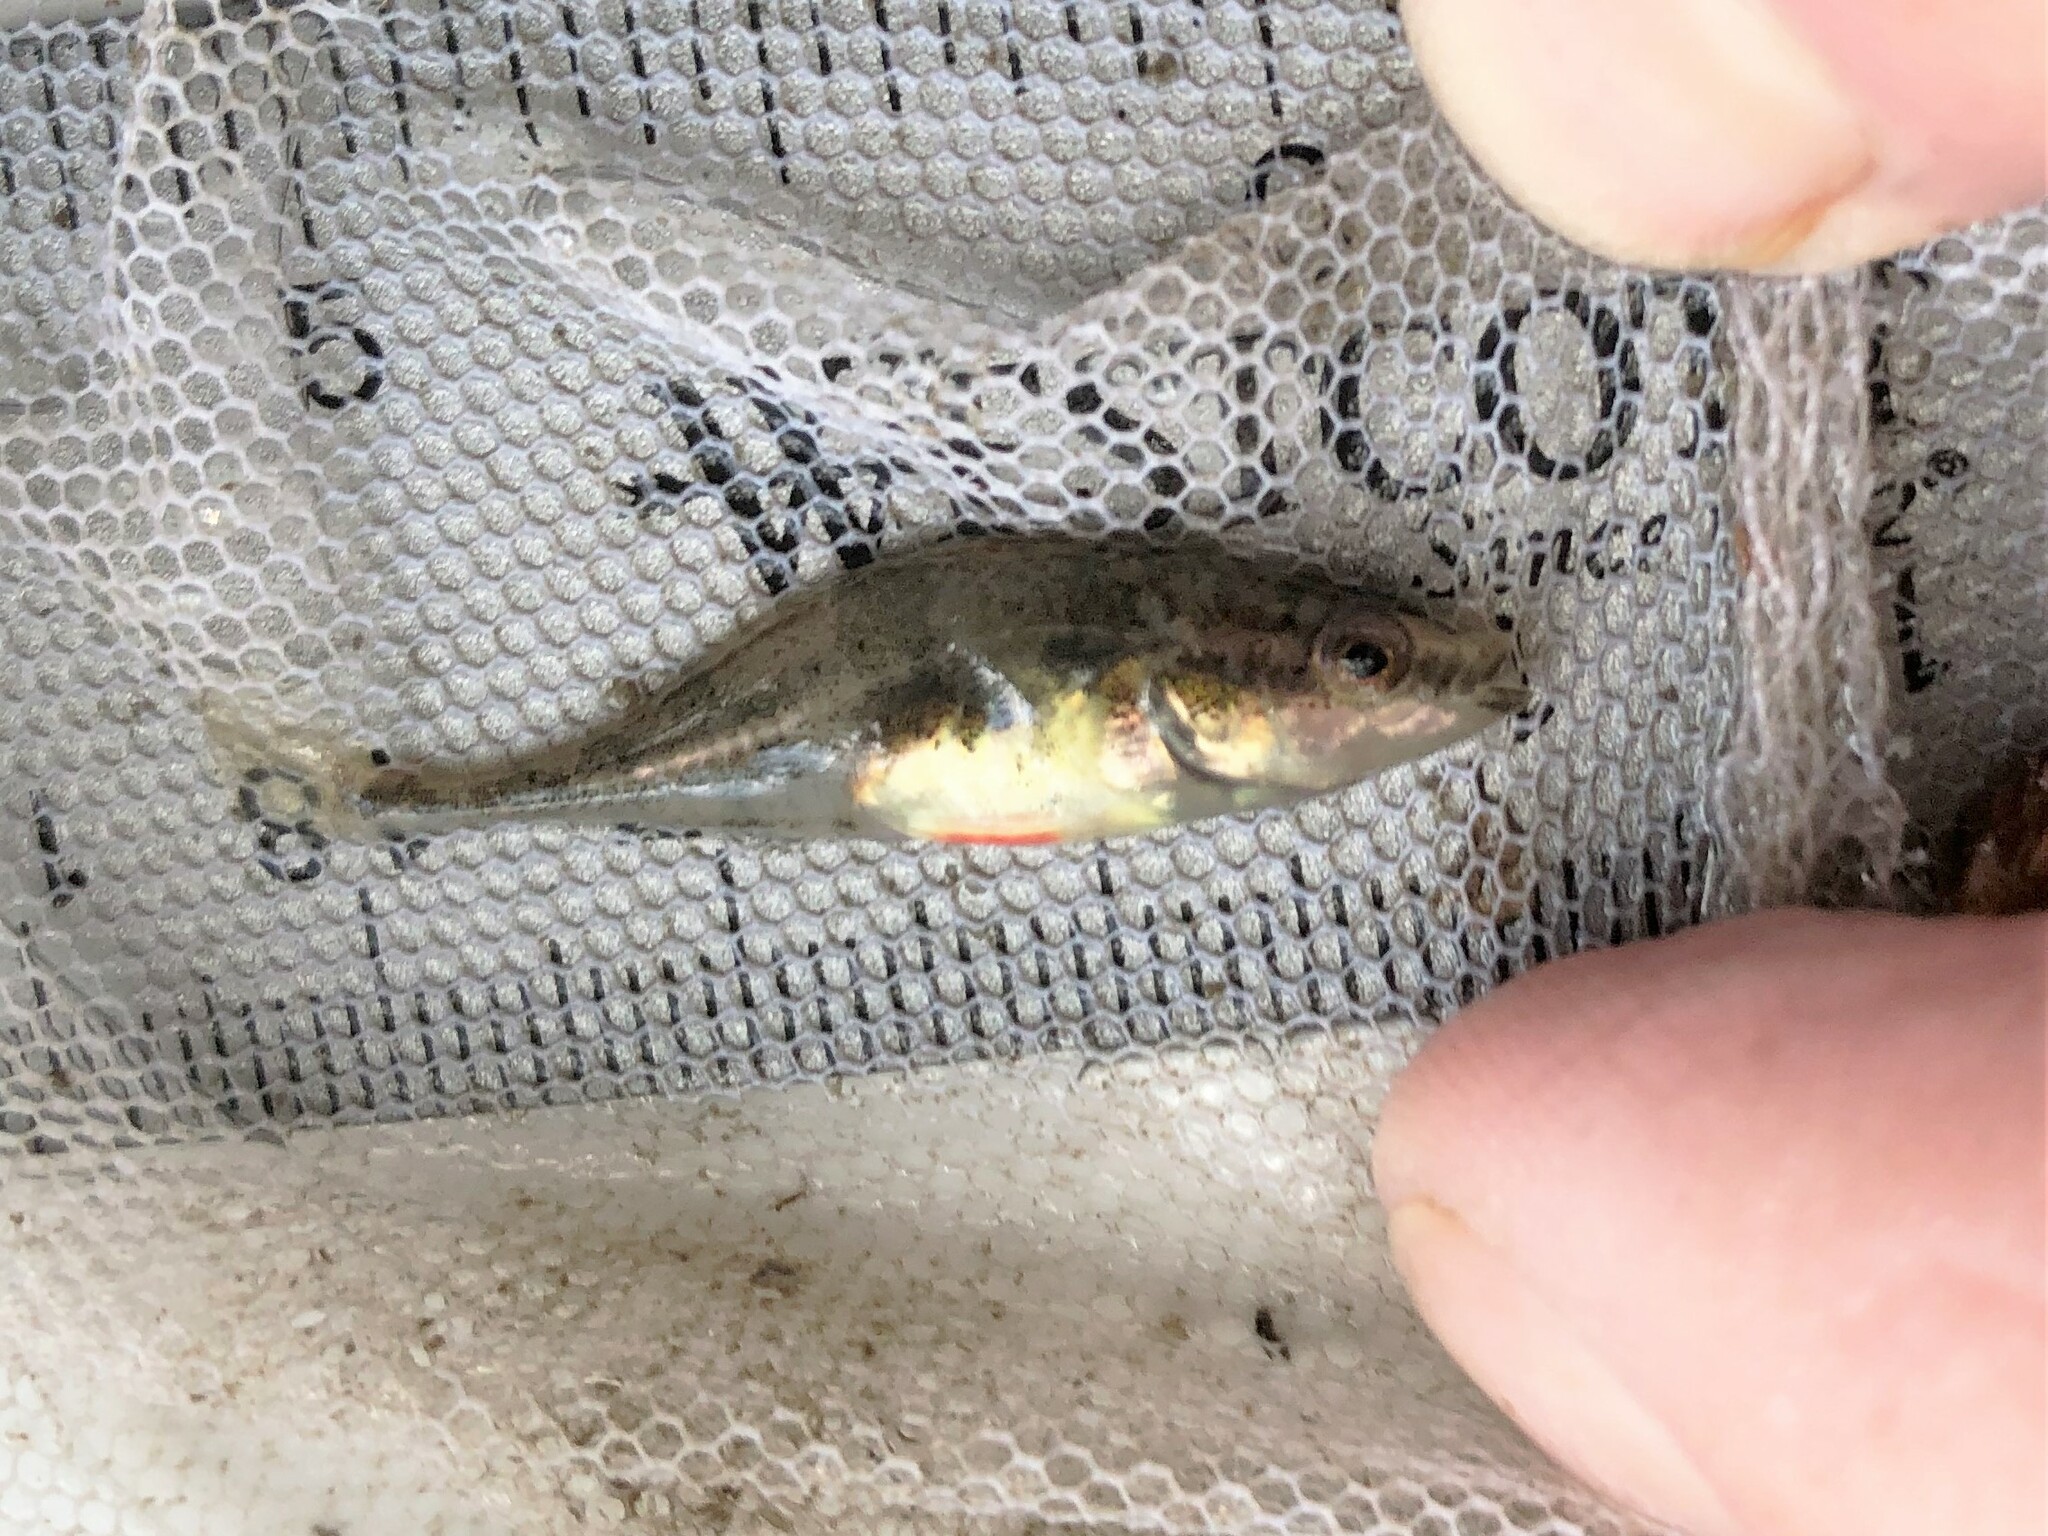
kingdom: Animalia
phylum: Chordata
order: Gasterosteiformes
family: Gasterosteidae
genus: Apeltes
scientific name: Apeltes quadracus
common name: Fourspine stickleback
